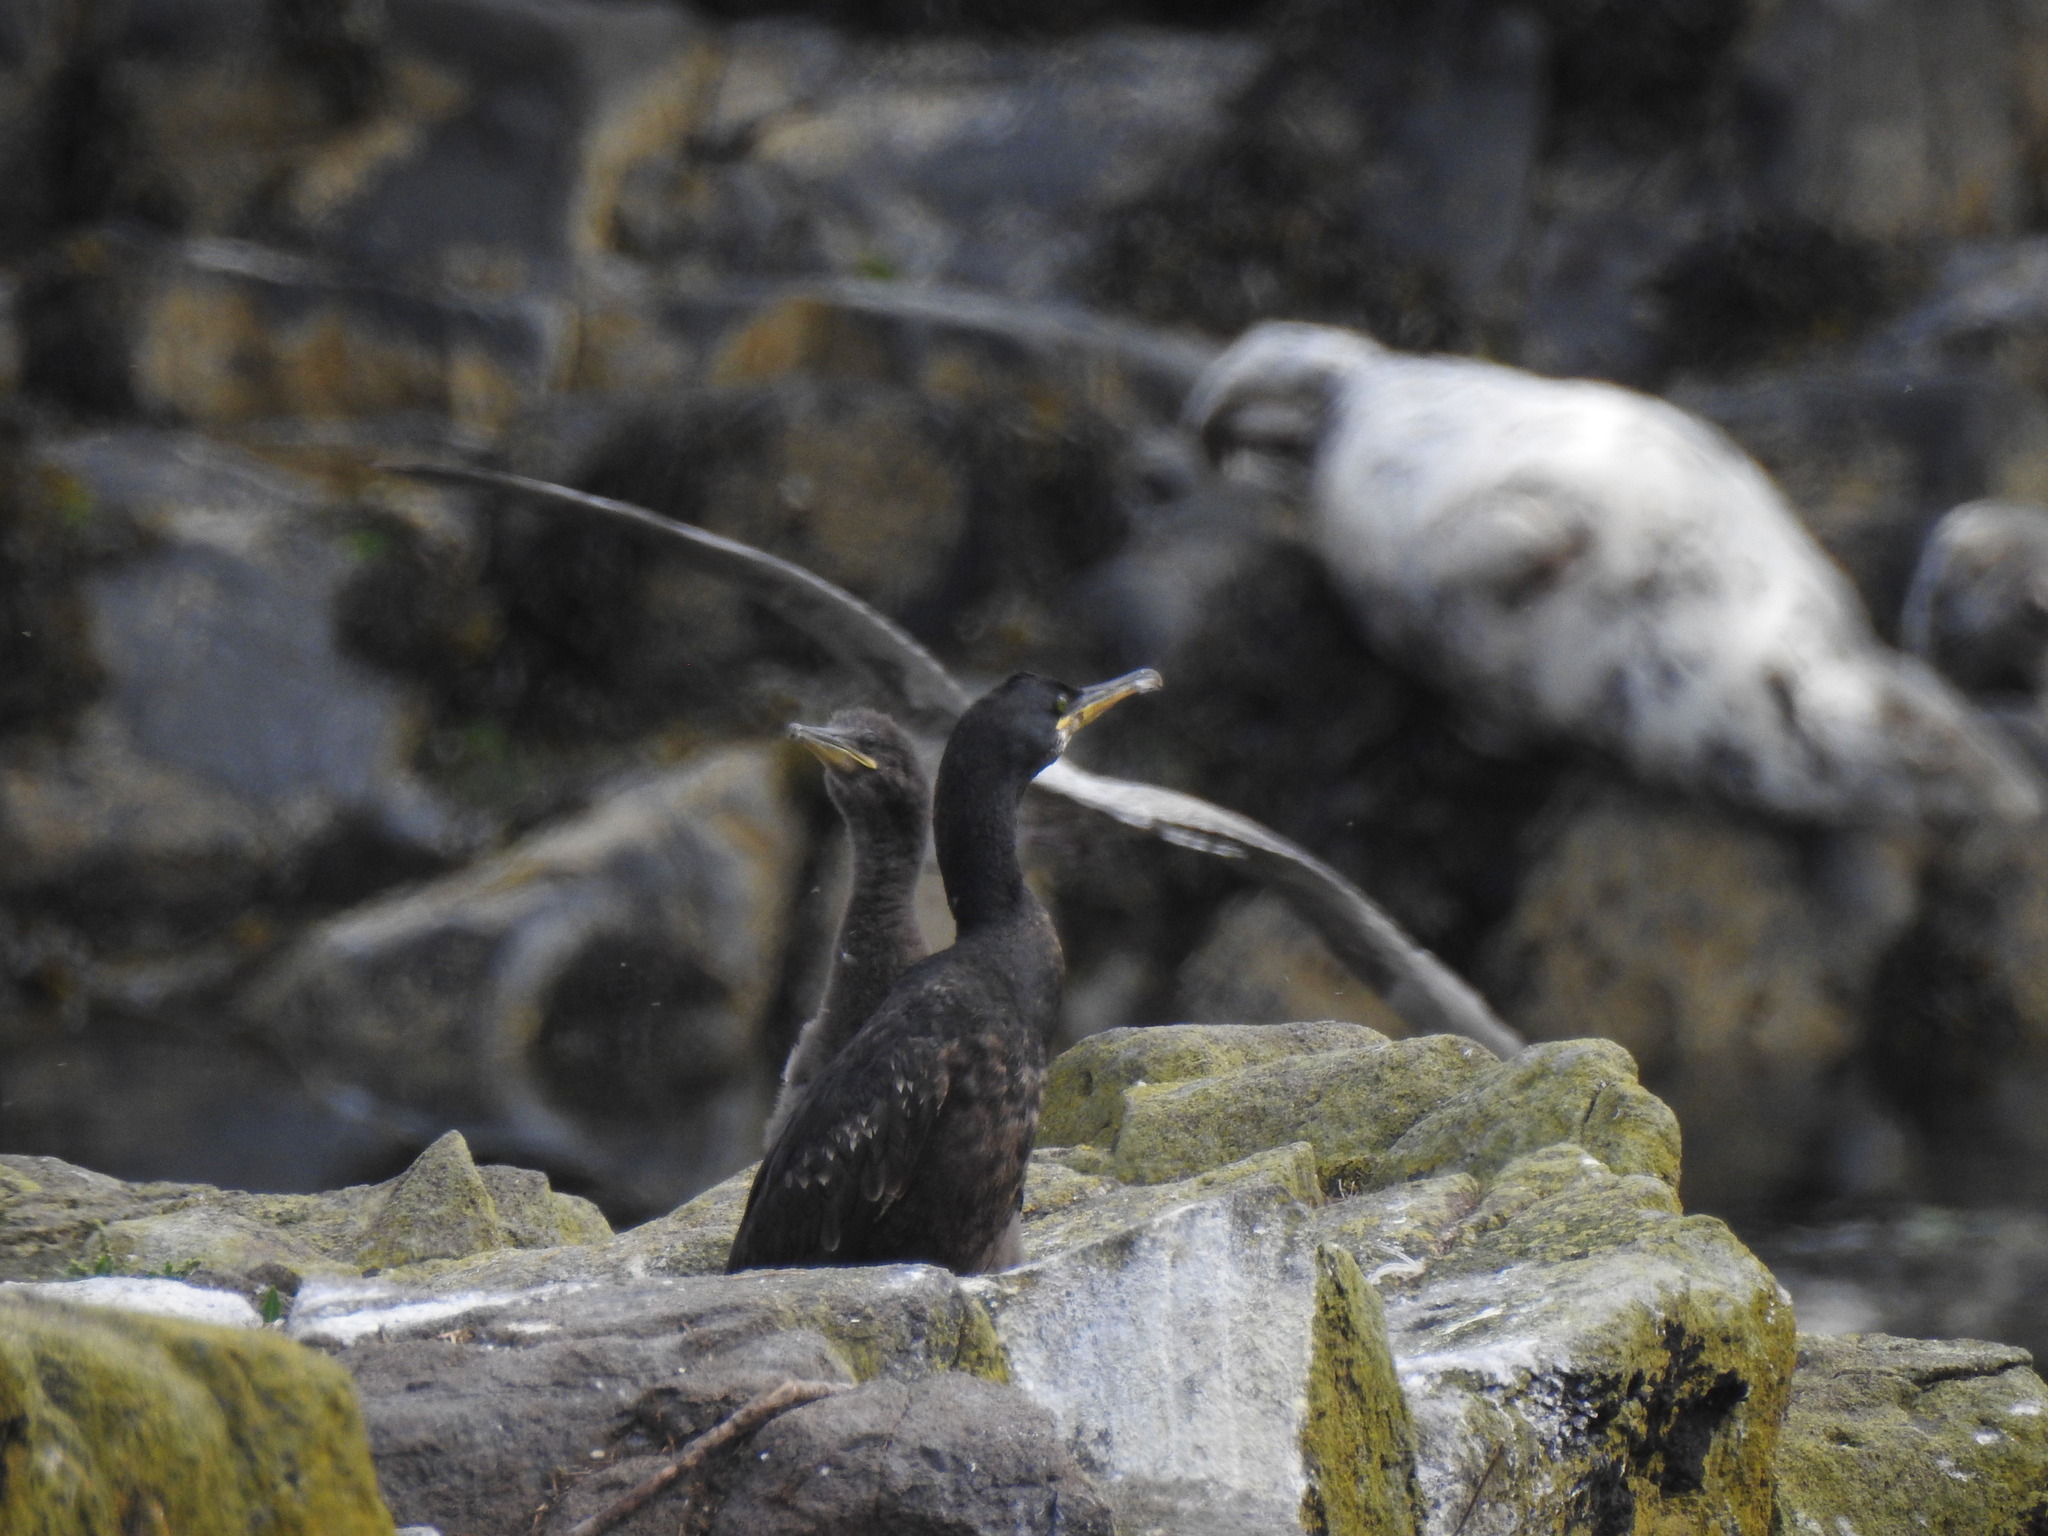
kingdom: Animalia
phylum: Chordata
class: Aves
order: Suliformes
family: Phalacrocoracidae
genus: Phalacrocorax
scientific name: Phalacrocorax aristotelis
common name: European shag
